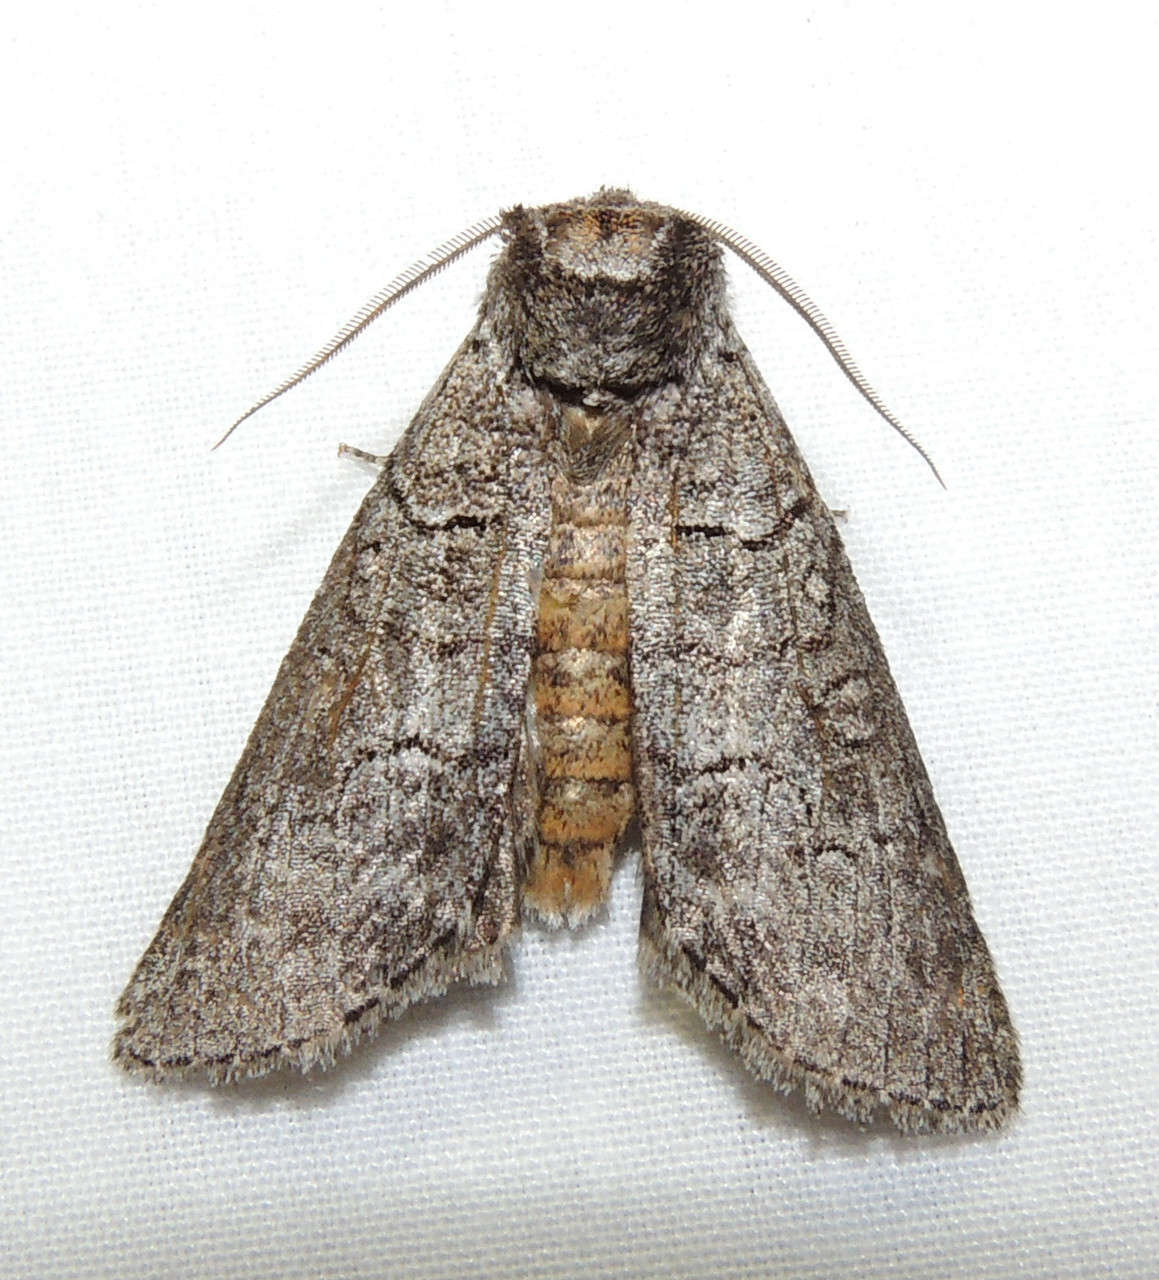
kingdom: Animalia
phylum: Arthropoda
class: Insecta
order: Lepidoptera
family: Oenosandridae
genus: Discophlebia
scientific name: Discophlebia celaena
